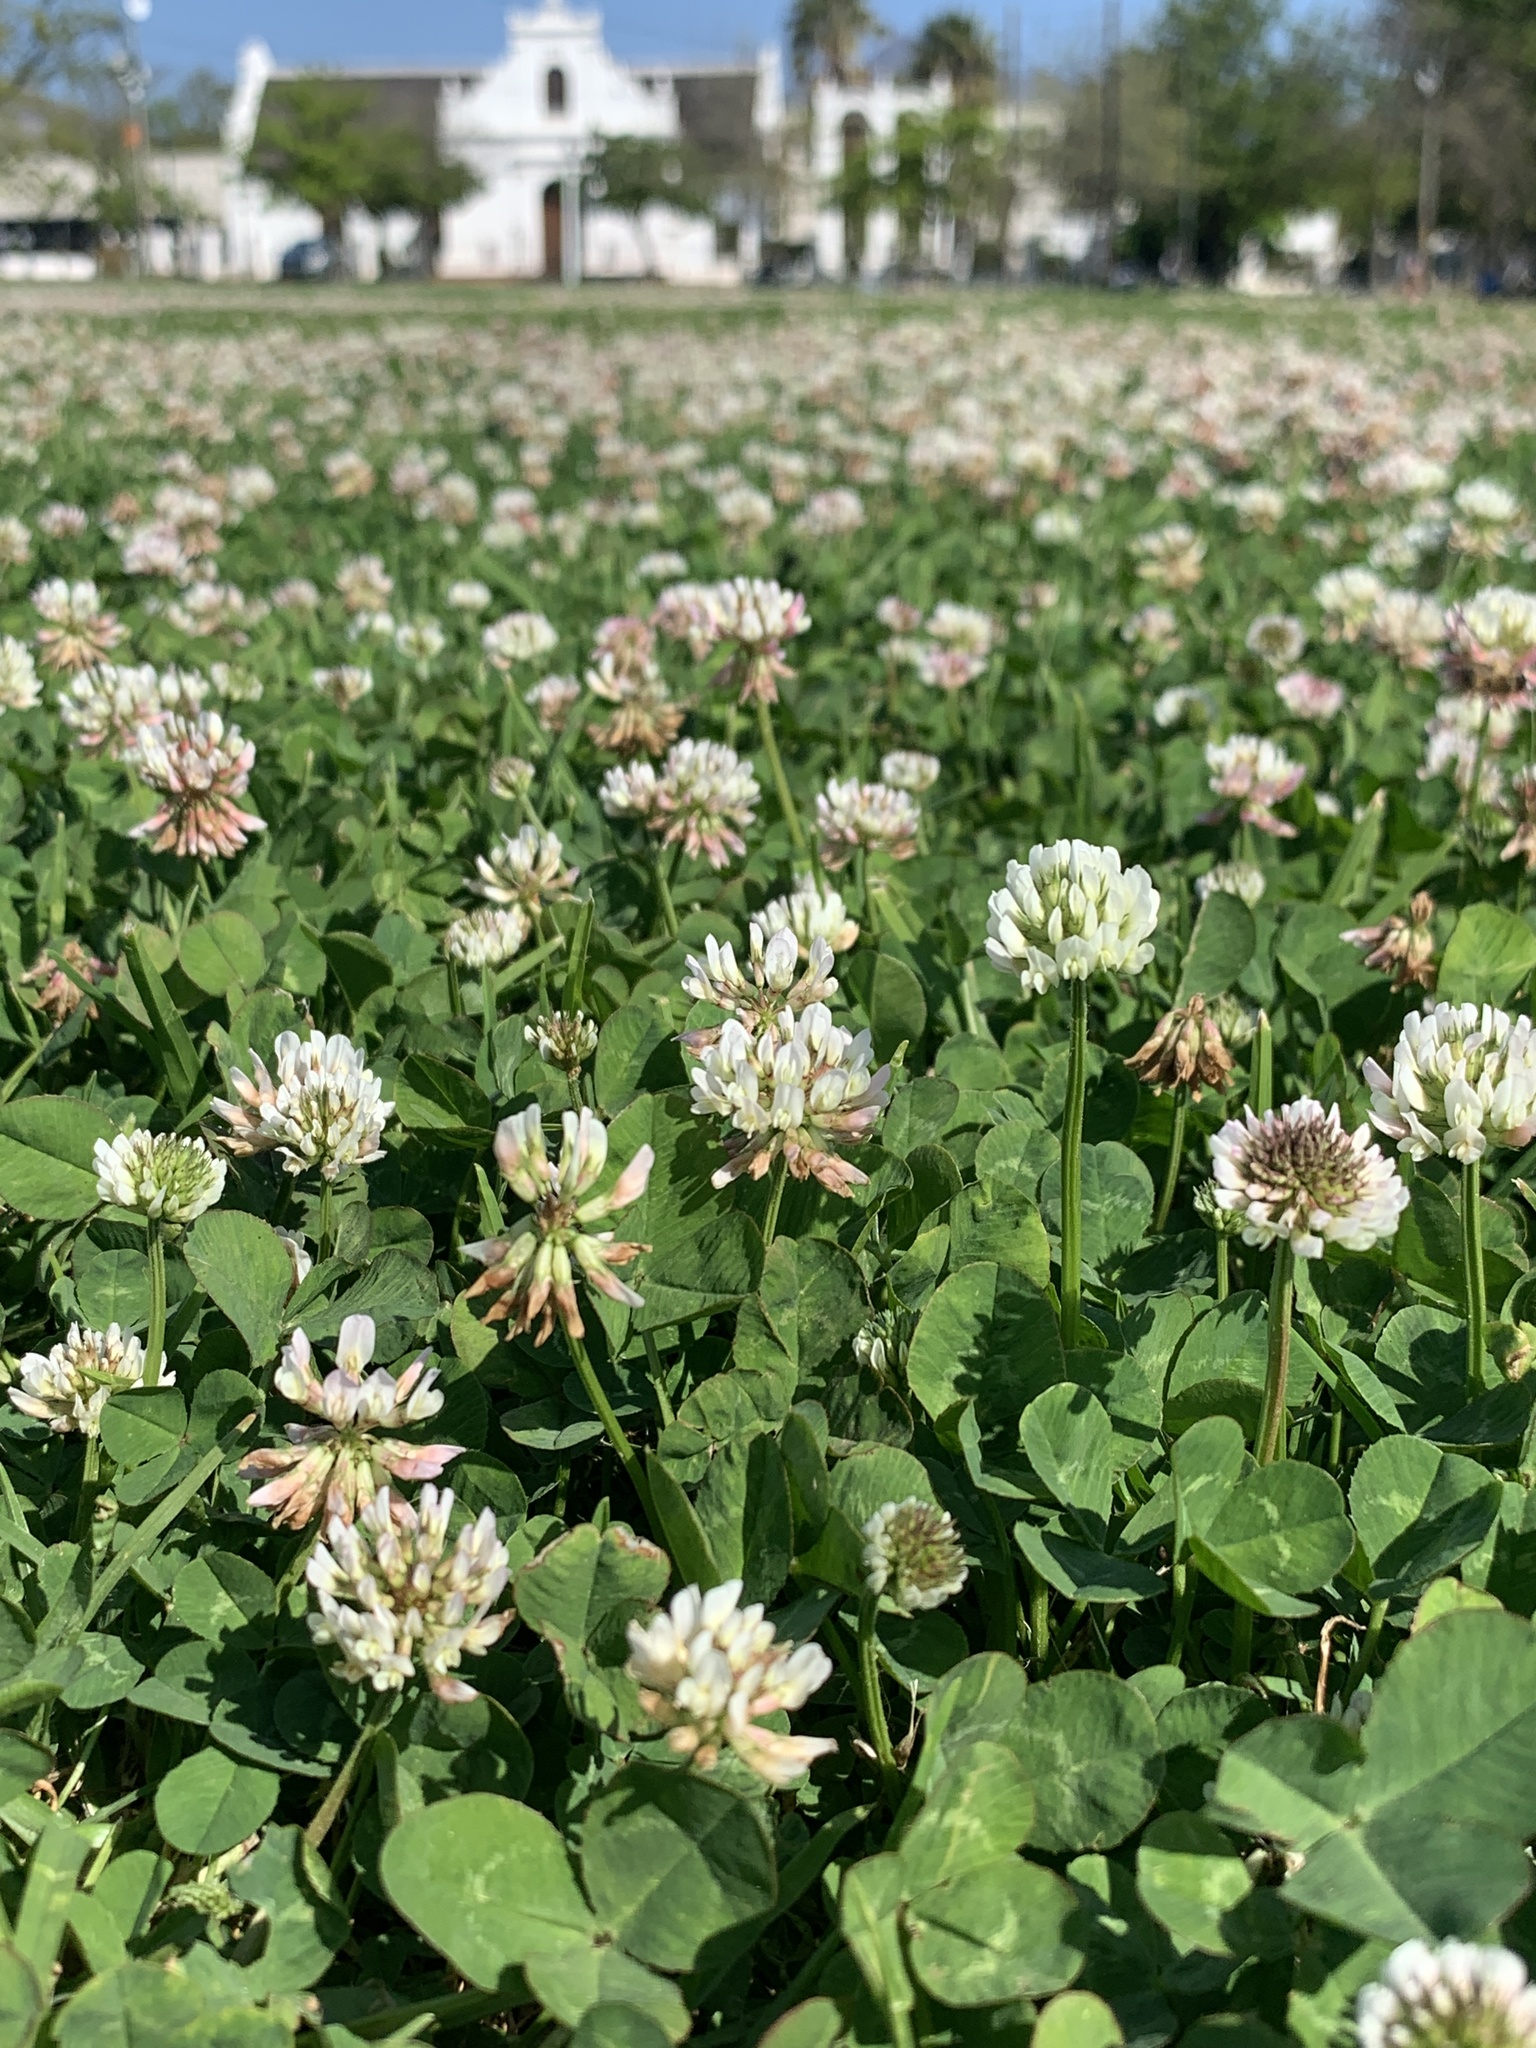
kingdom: Plantae
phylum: Tracheophyta
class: Magnoliopsida
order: Fabales
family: Fabaceae
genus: Trifolium
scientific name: Trifolium repens
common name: White clover
